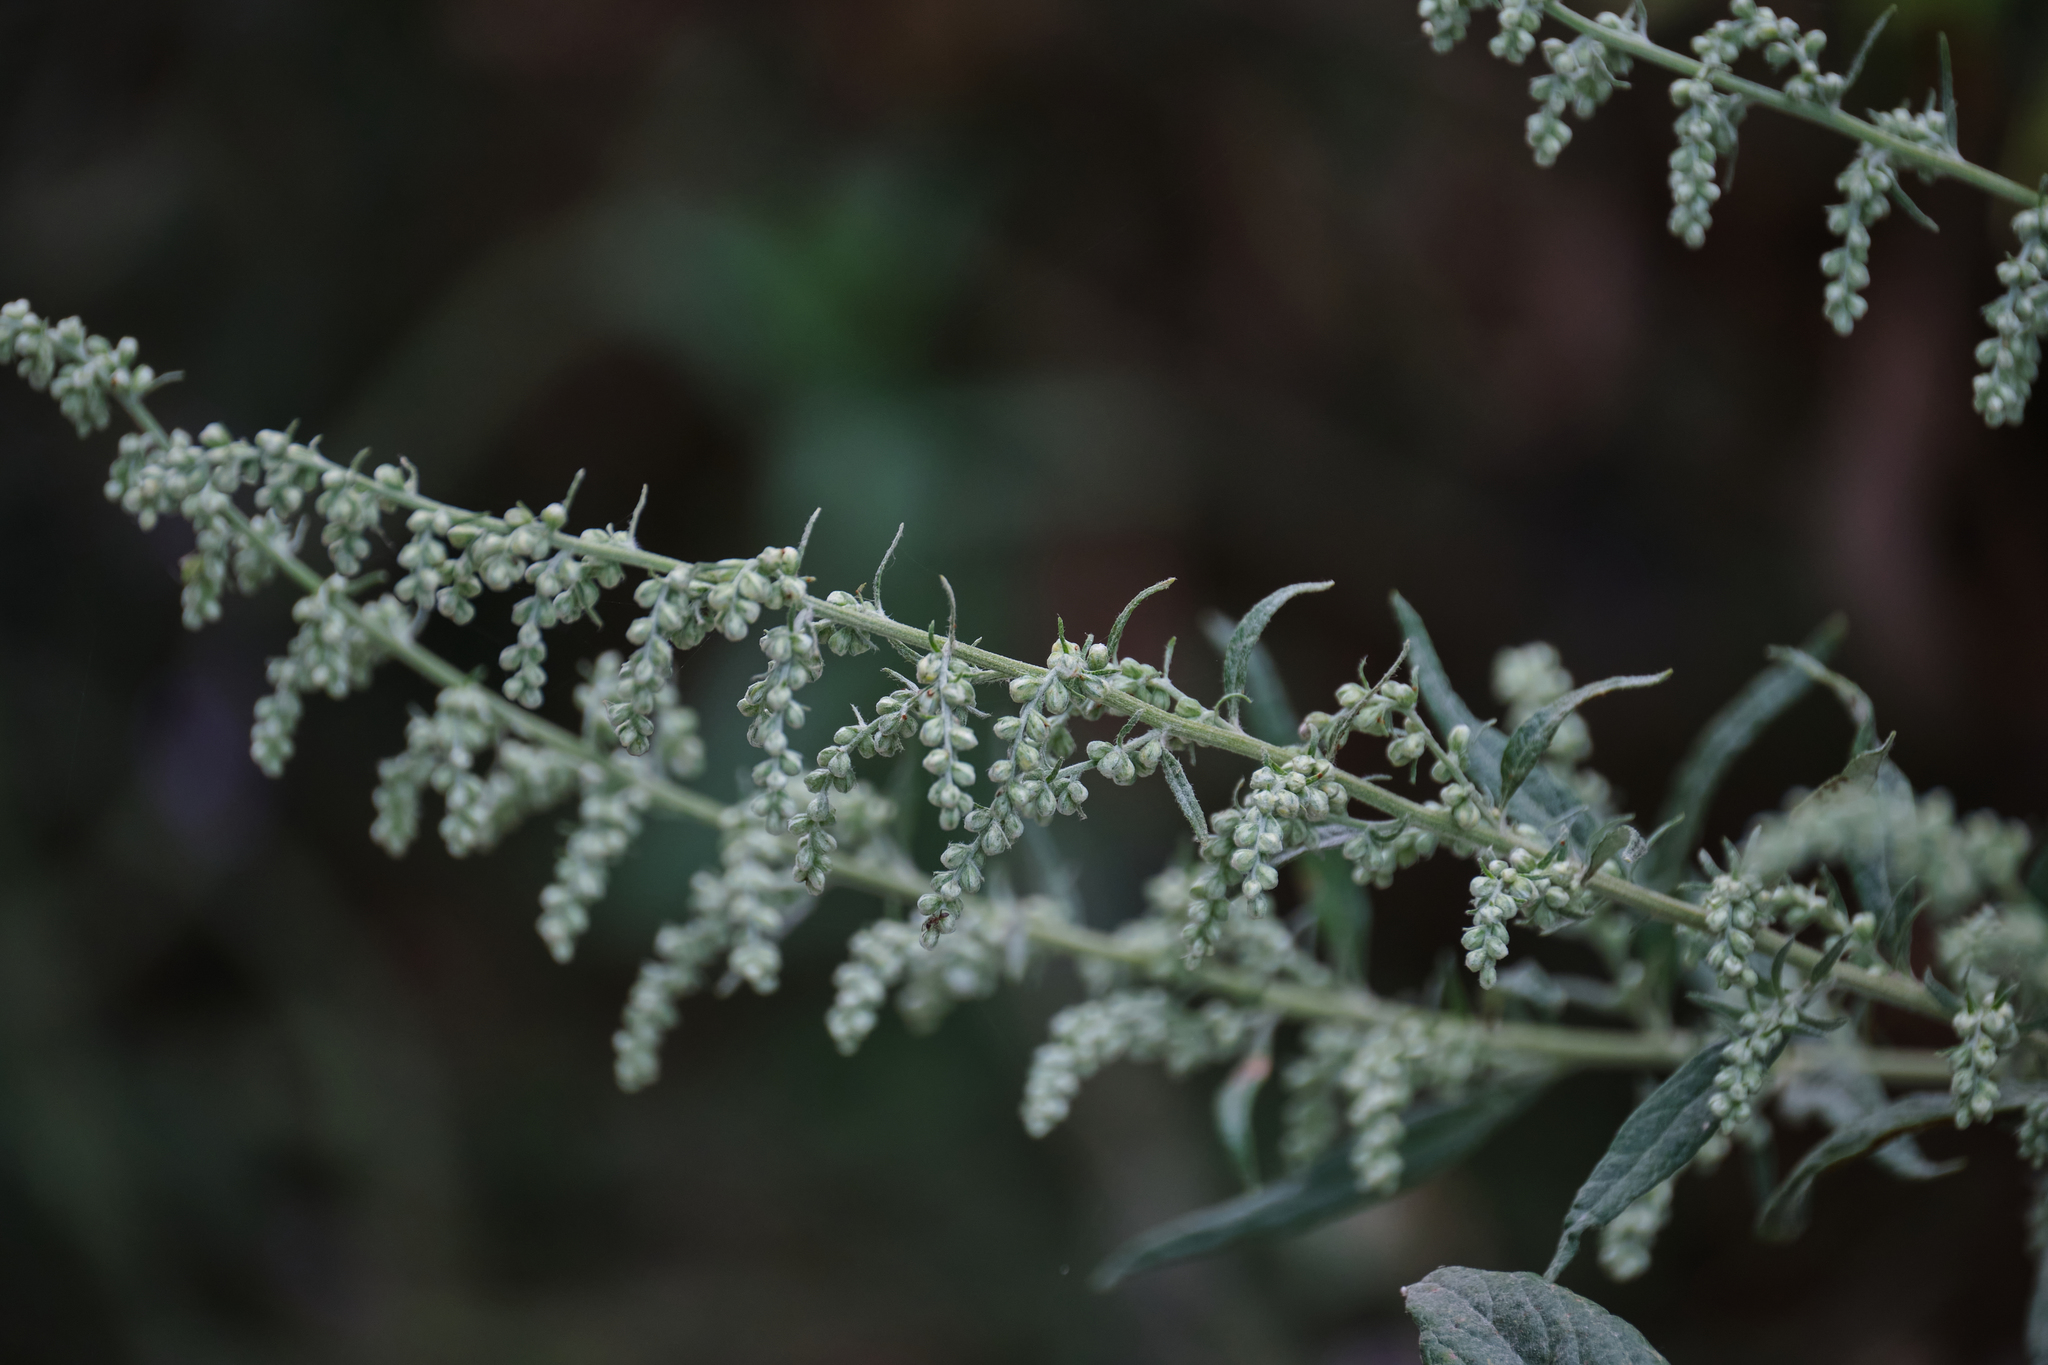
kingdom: Plantae
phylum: Tracheophyta
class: Magnoliopsida
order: Asterales
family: Asteraceae
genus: Artemisia
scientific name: Artemisia douglasiana
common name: Northwest mugwort
